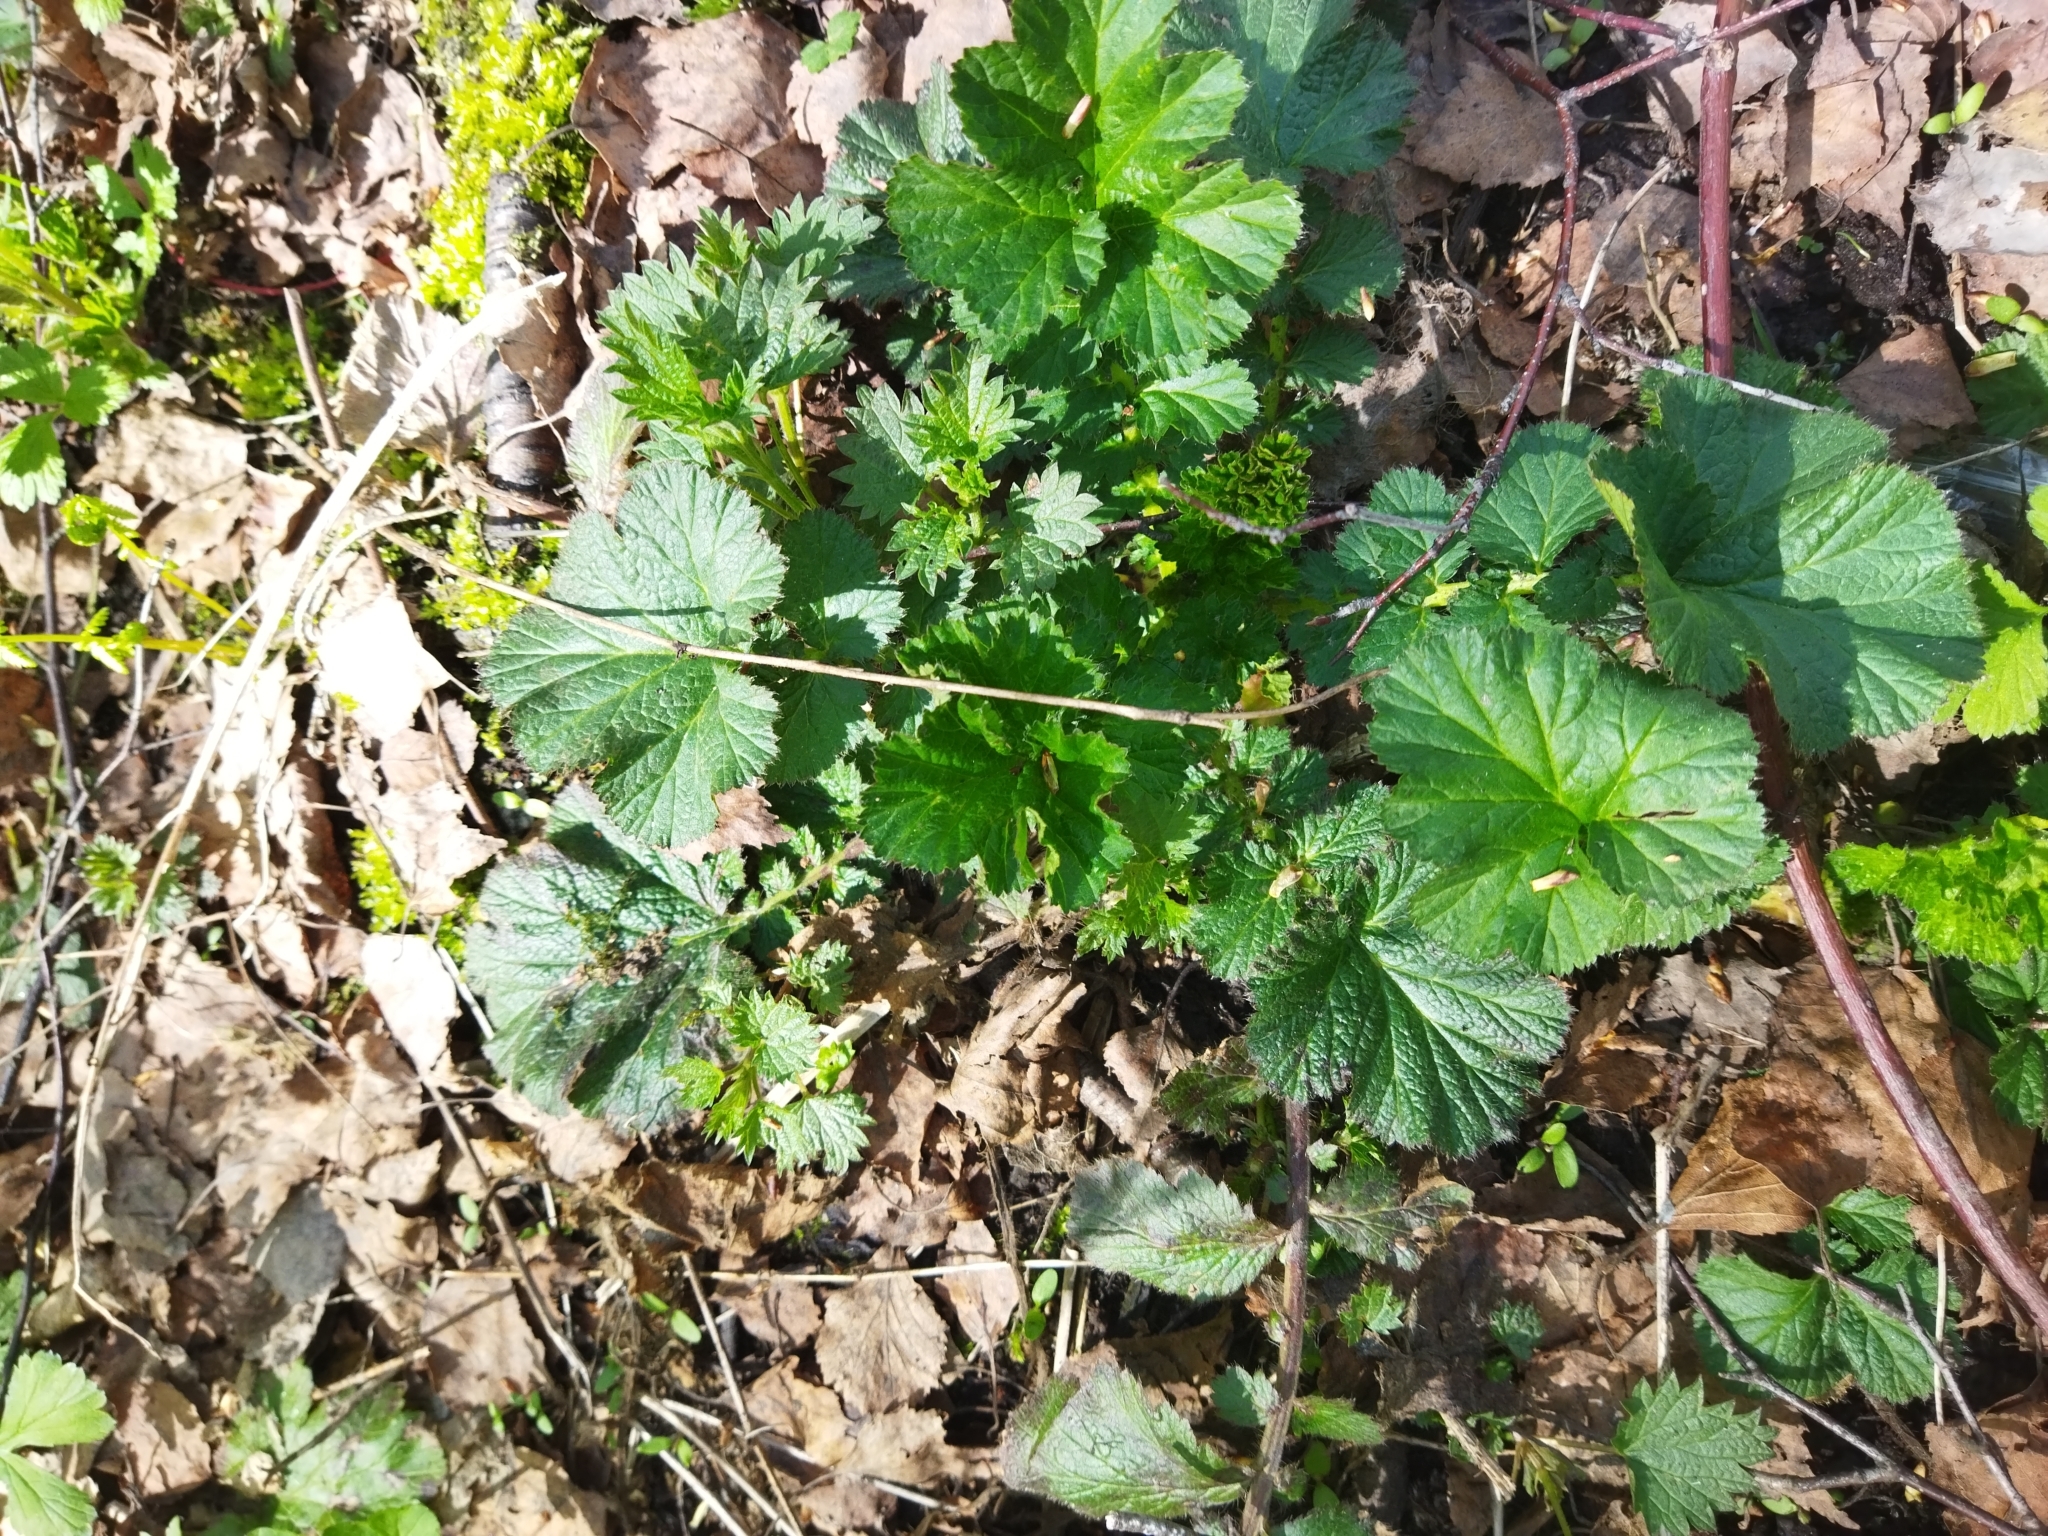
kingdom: Plantae
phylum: Tracheophyta
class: Magnoliopsida
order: Rosales
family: Rosaceae
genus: Geum
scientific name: Geum macrophyllum
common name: Large-leaved avens
